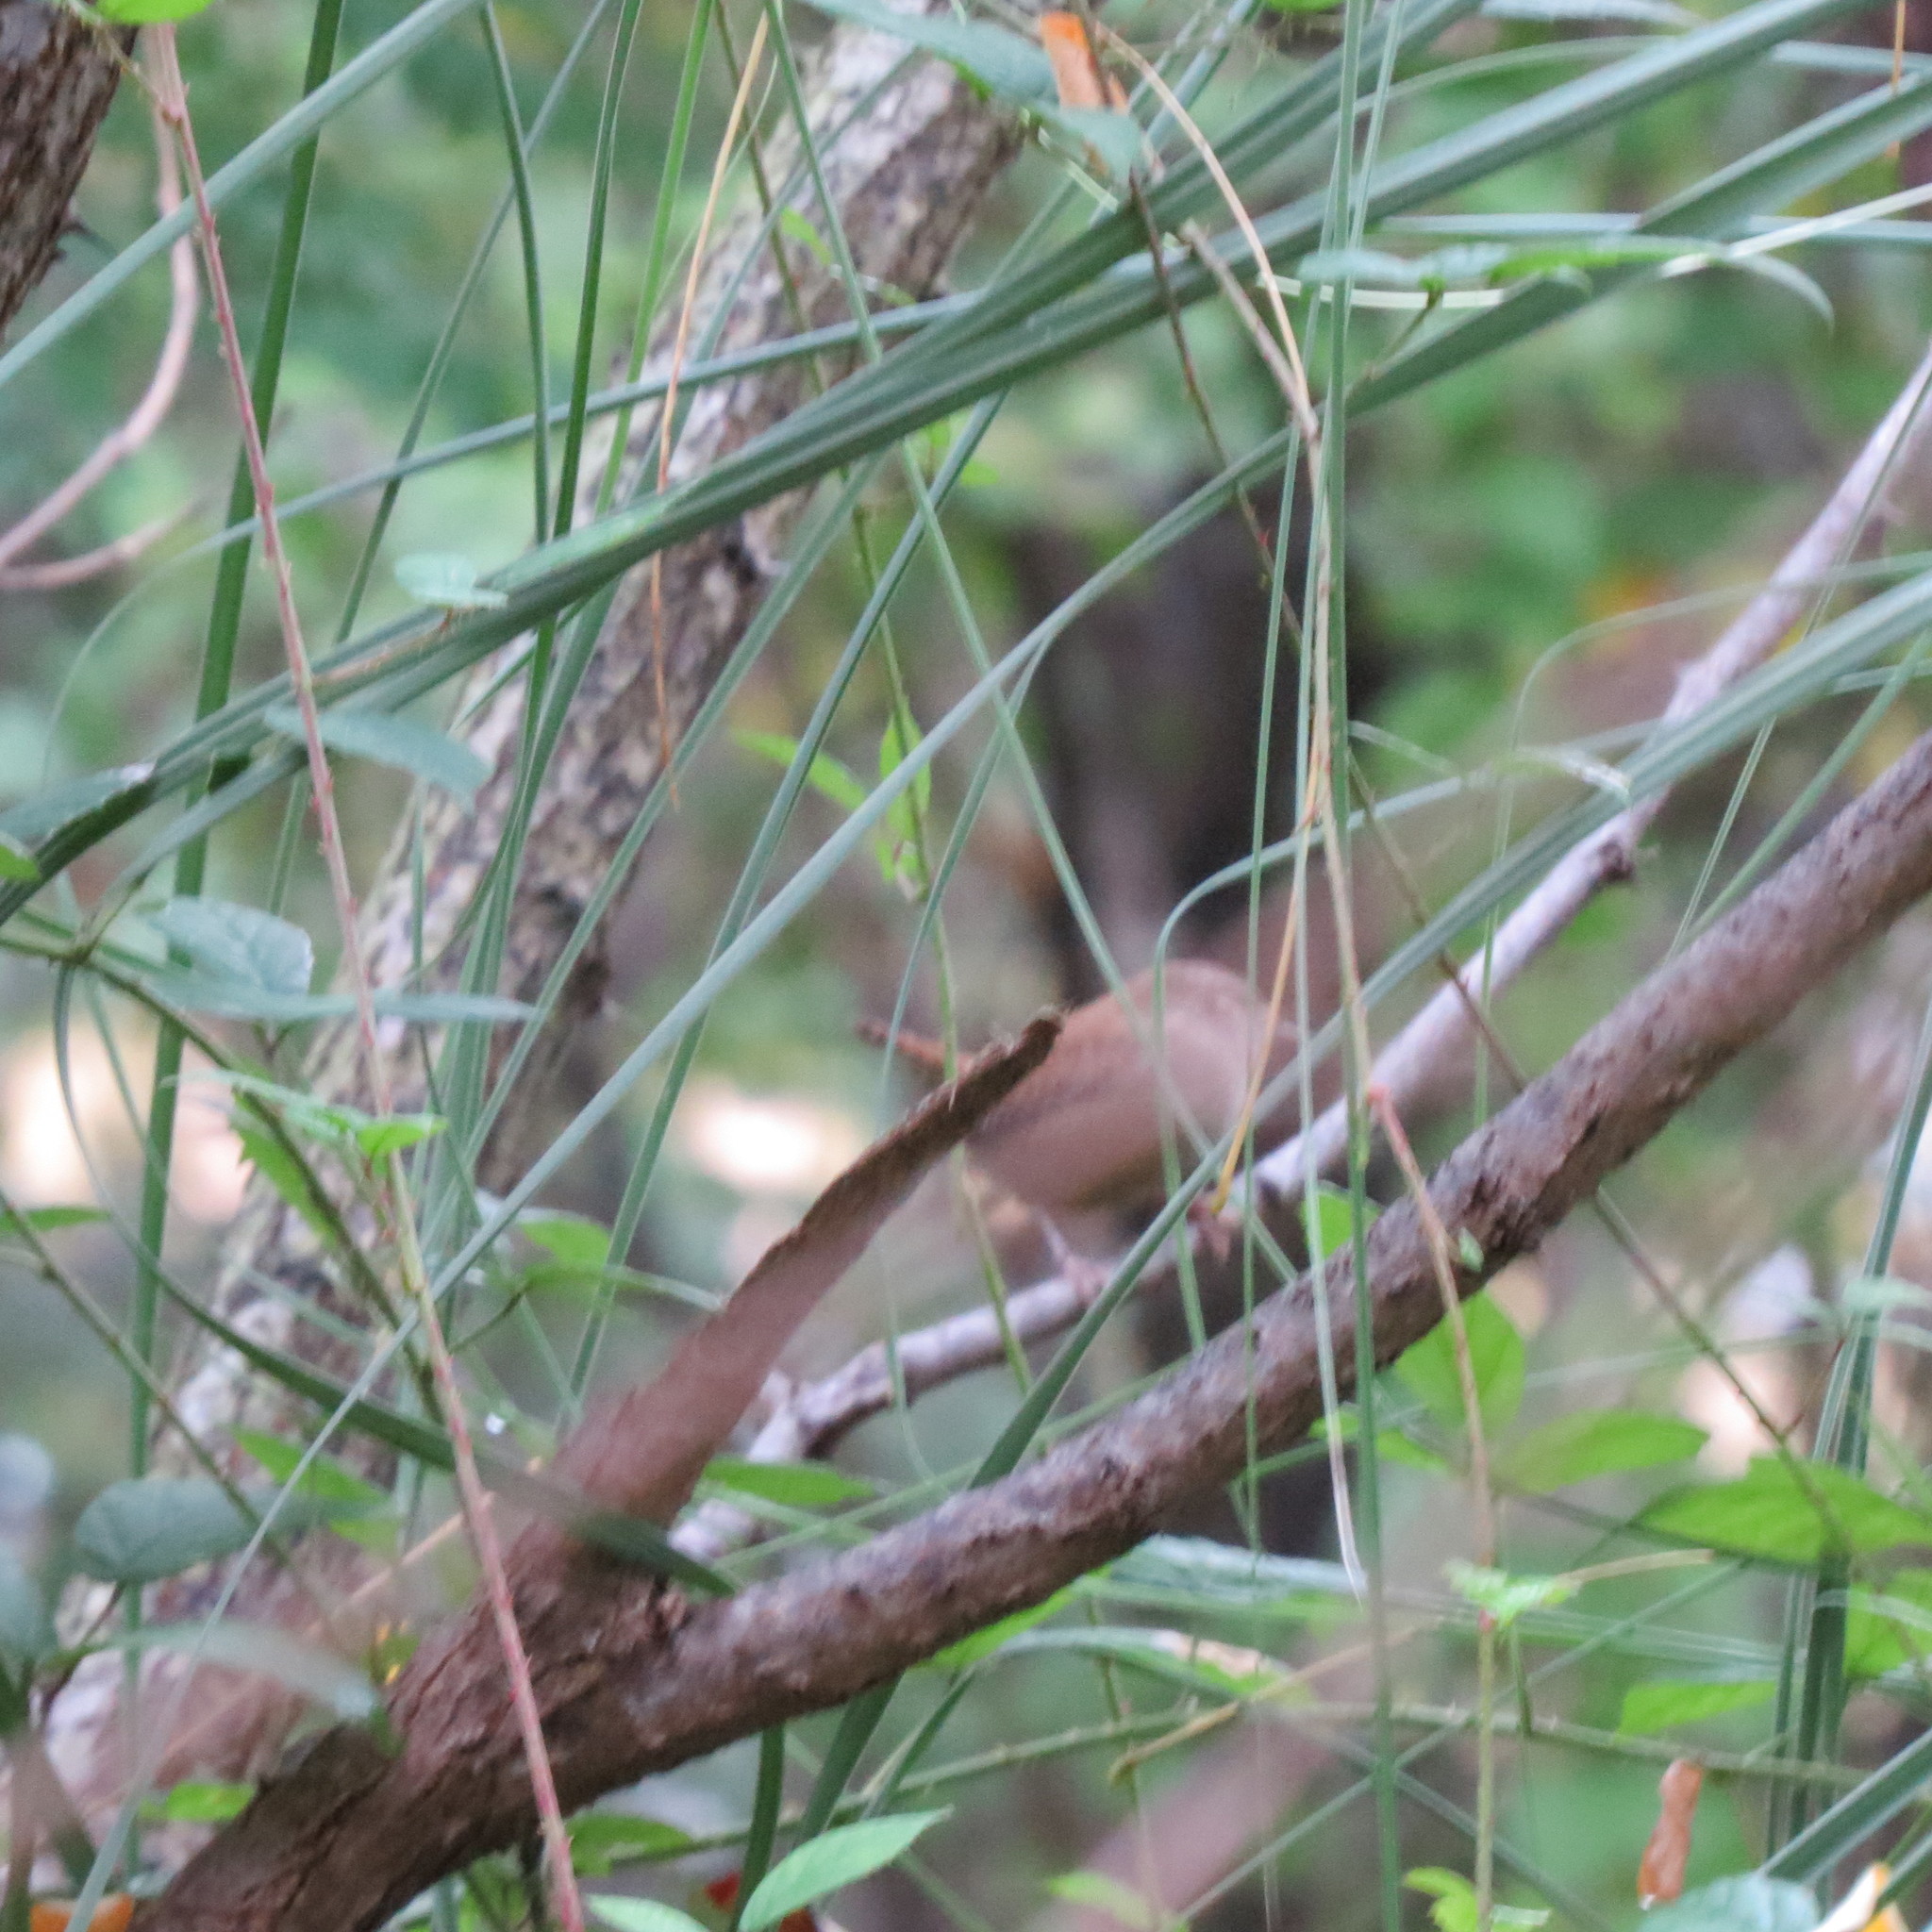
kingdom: Animalia
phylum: Chordata
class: Aves
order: Passeriformes
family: Troglodytidae
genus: Troglodytes
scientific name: Troglodytes troglodytes
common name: Eurasian wren
